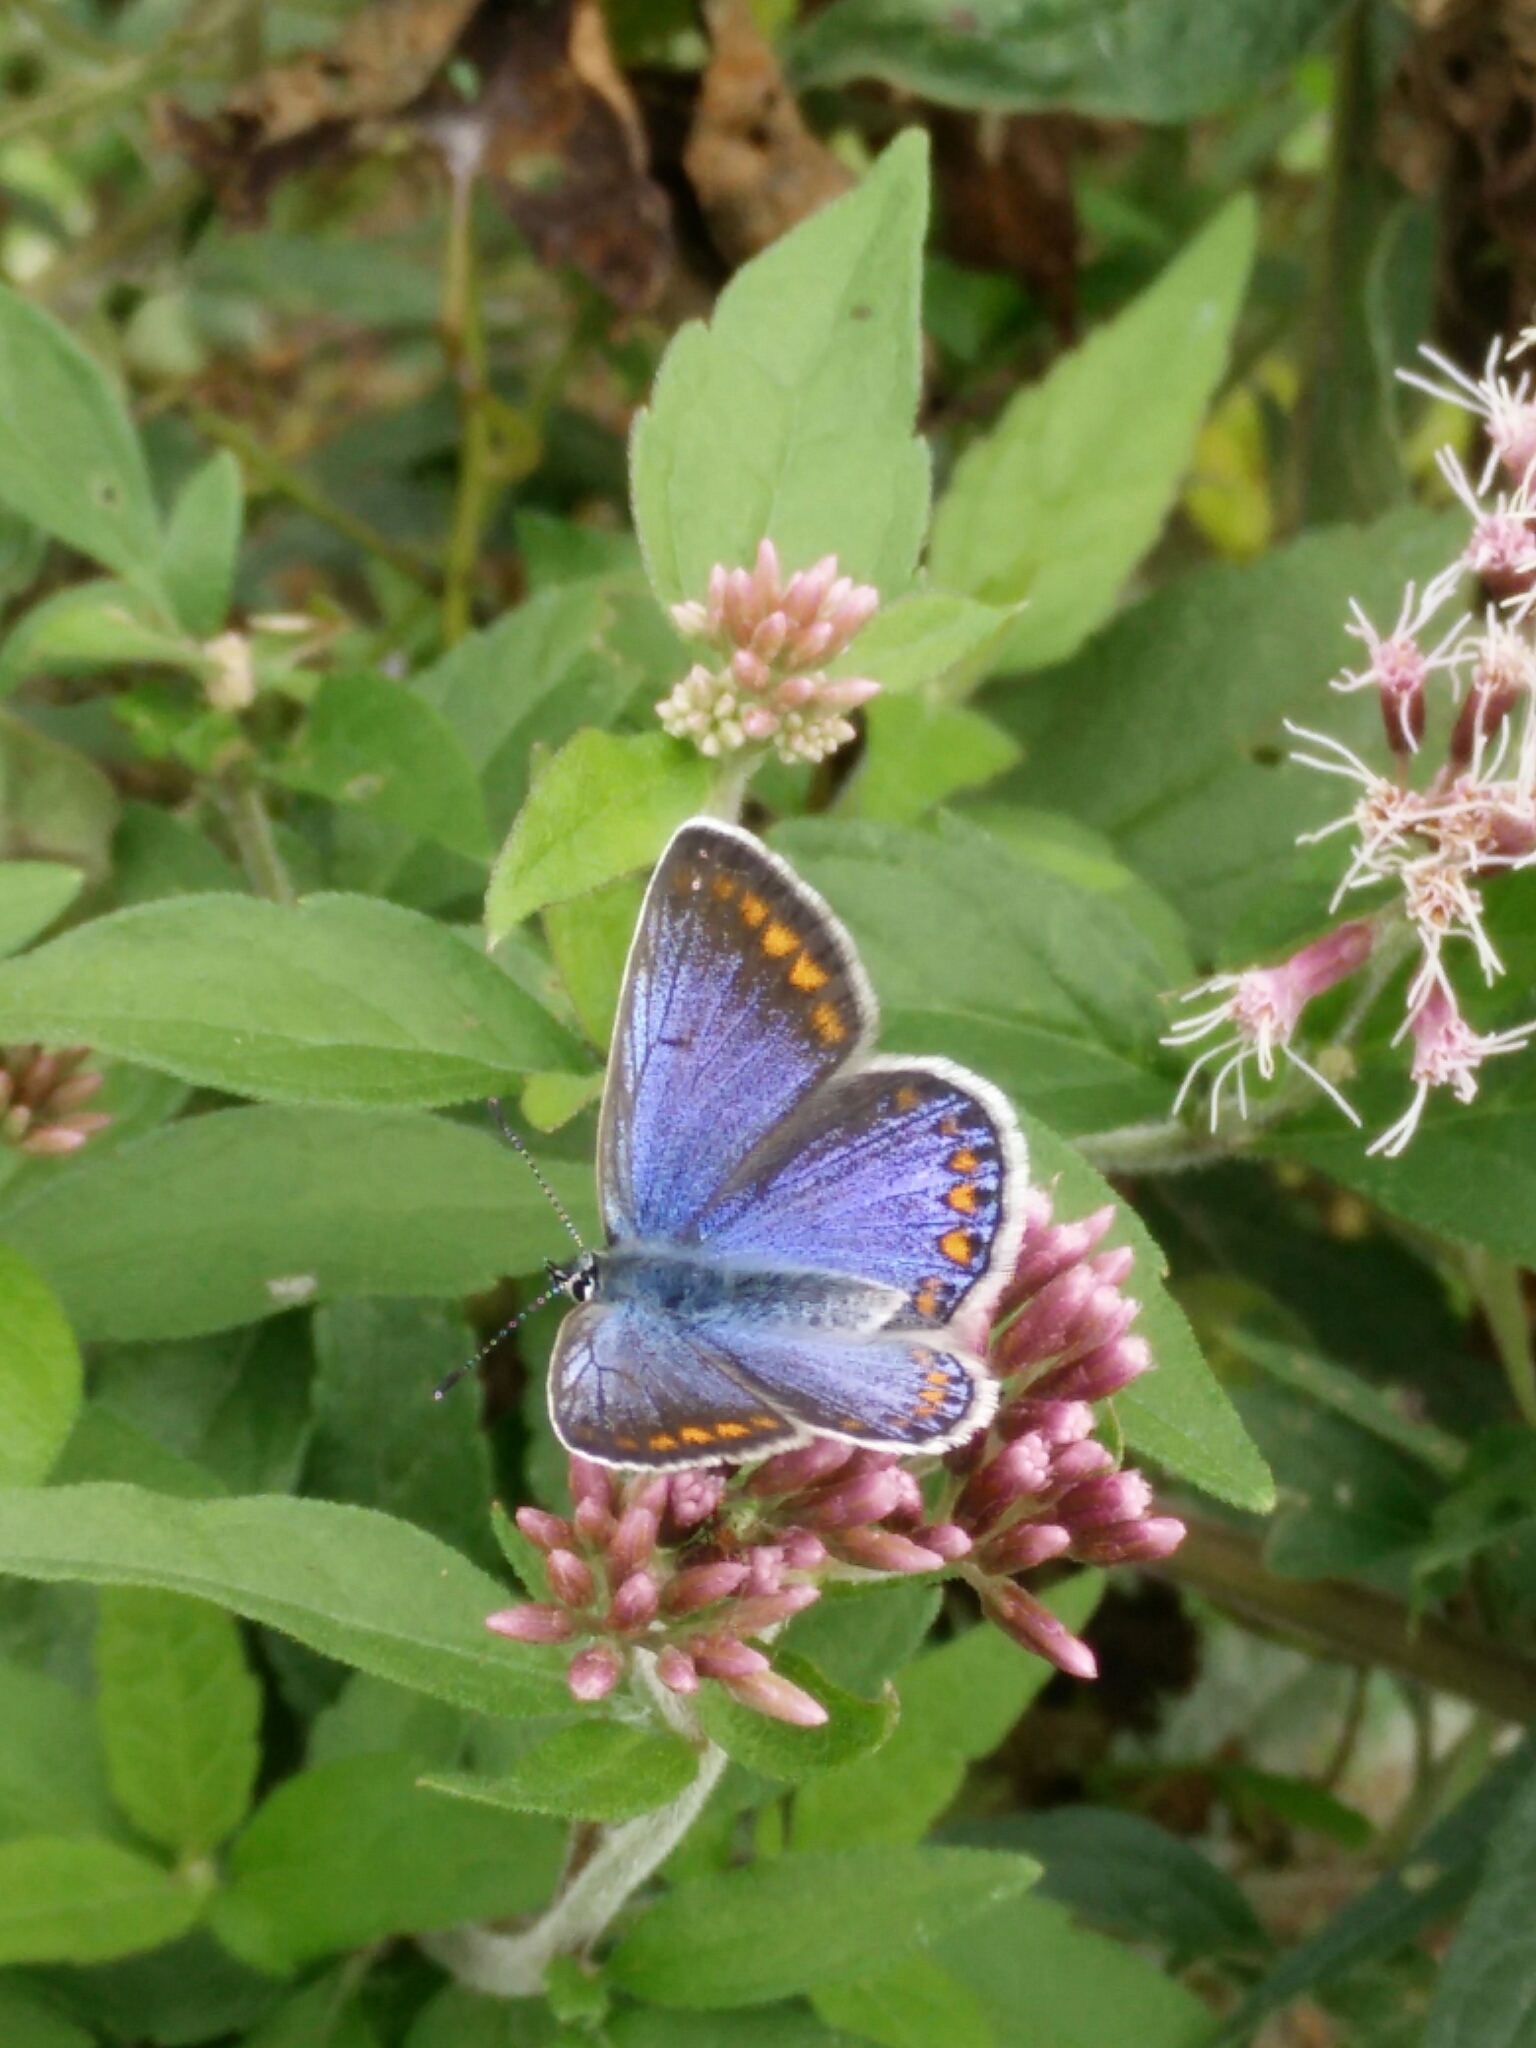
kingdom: Animalia
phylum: Arthropoda
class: Insecta
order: Lepidoptera
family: Lycaenidae
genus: Polyommatus
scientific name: Polyommatus icarus
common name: Common blue
